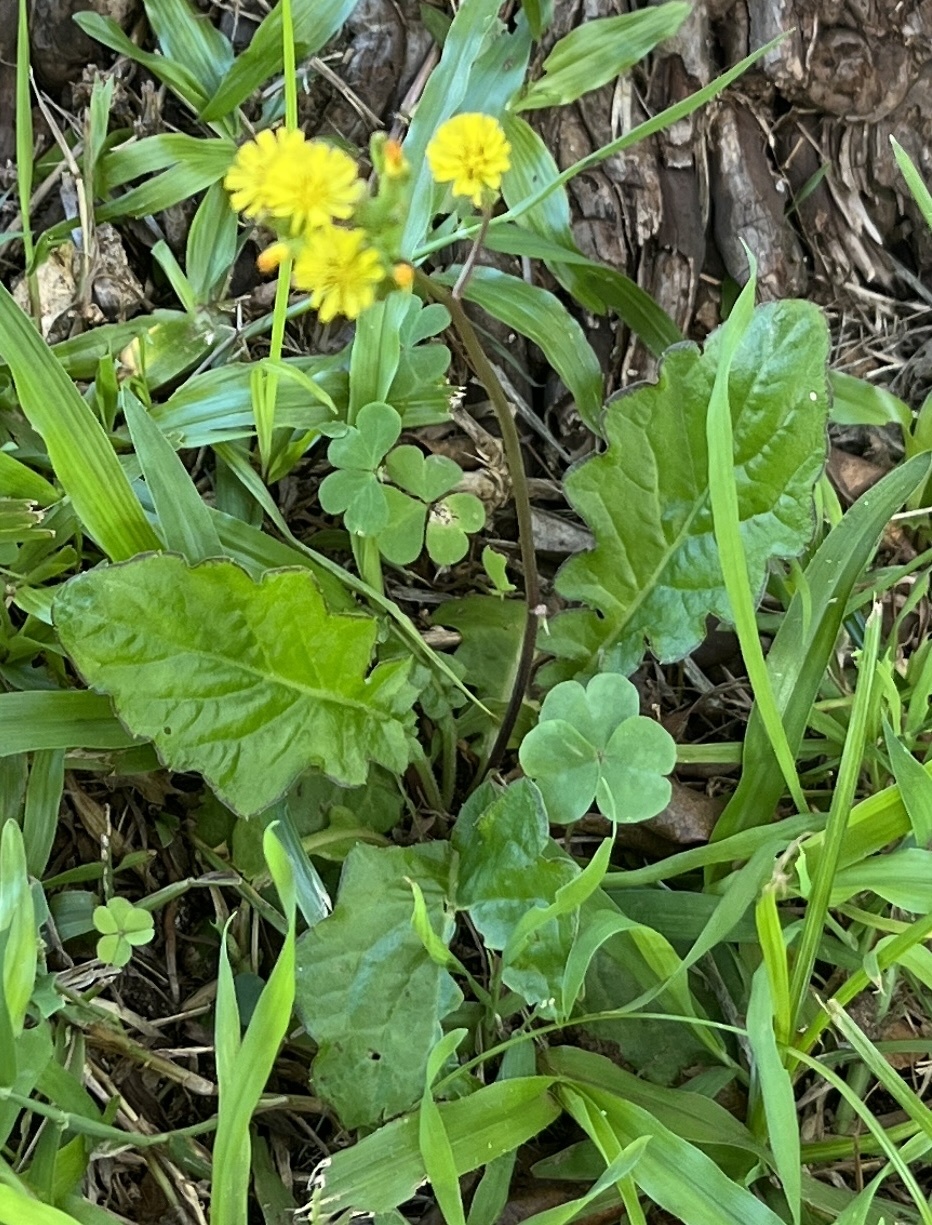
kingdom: Plantae
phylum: Tracheophyta
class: Magnoliopsida
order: Asterales
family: Asteraceae
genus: Youngia
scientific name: Youngia japonica
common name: Oriental false hawksbeard
